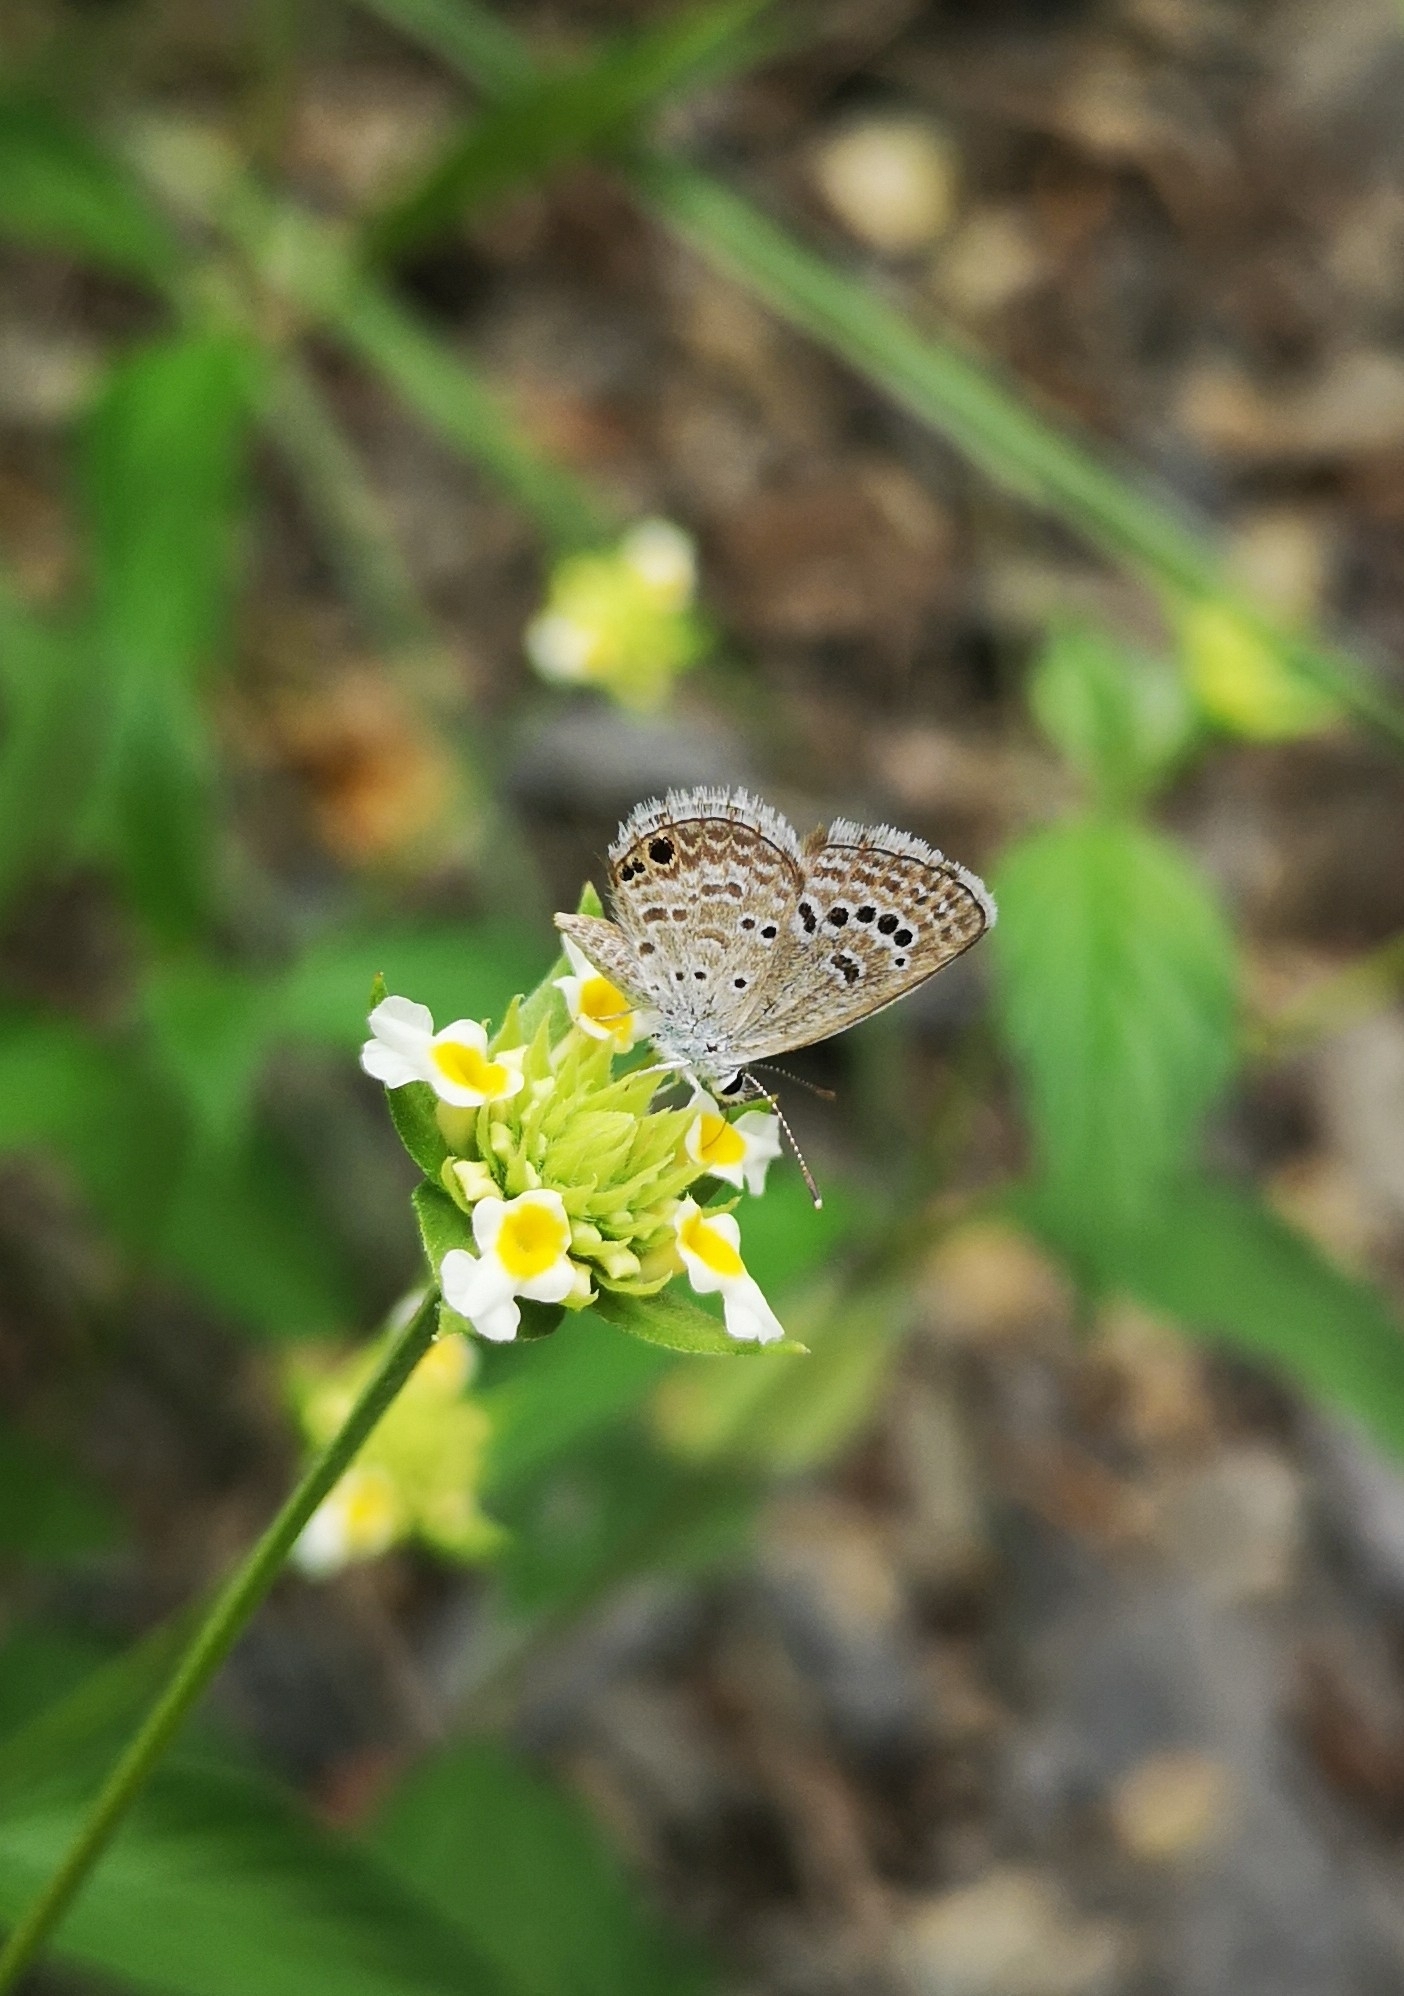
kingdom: Animalia
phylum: Arthropoda
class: Insecta
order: Lepidoptera
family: Lycaenidae
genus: Echinargus
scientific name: Echinargus isola
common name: Reakirt's blue
